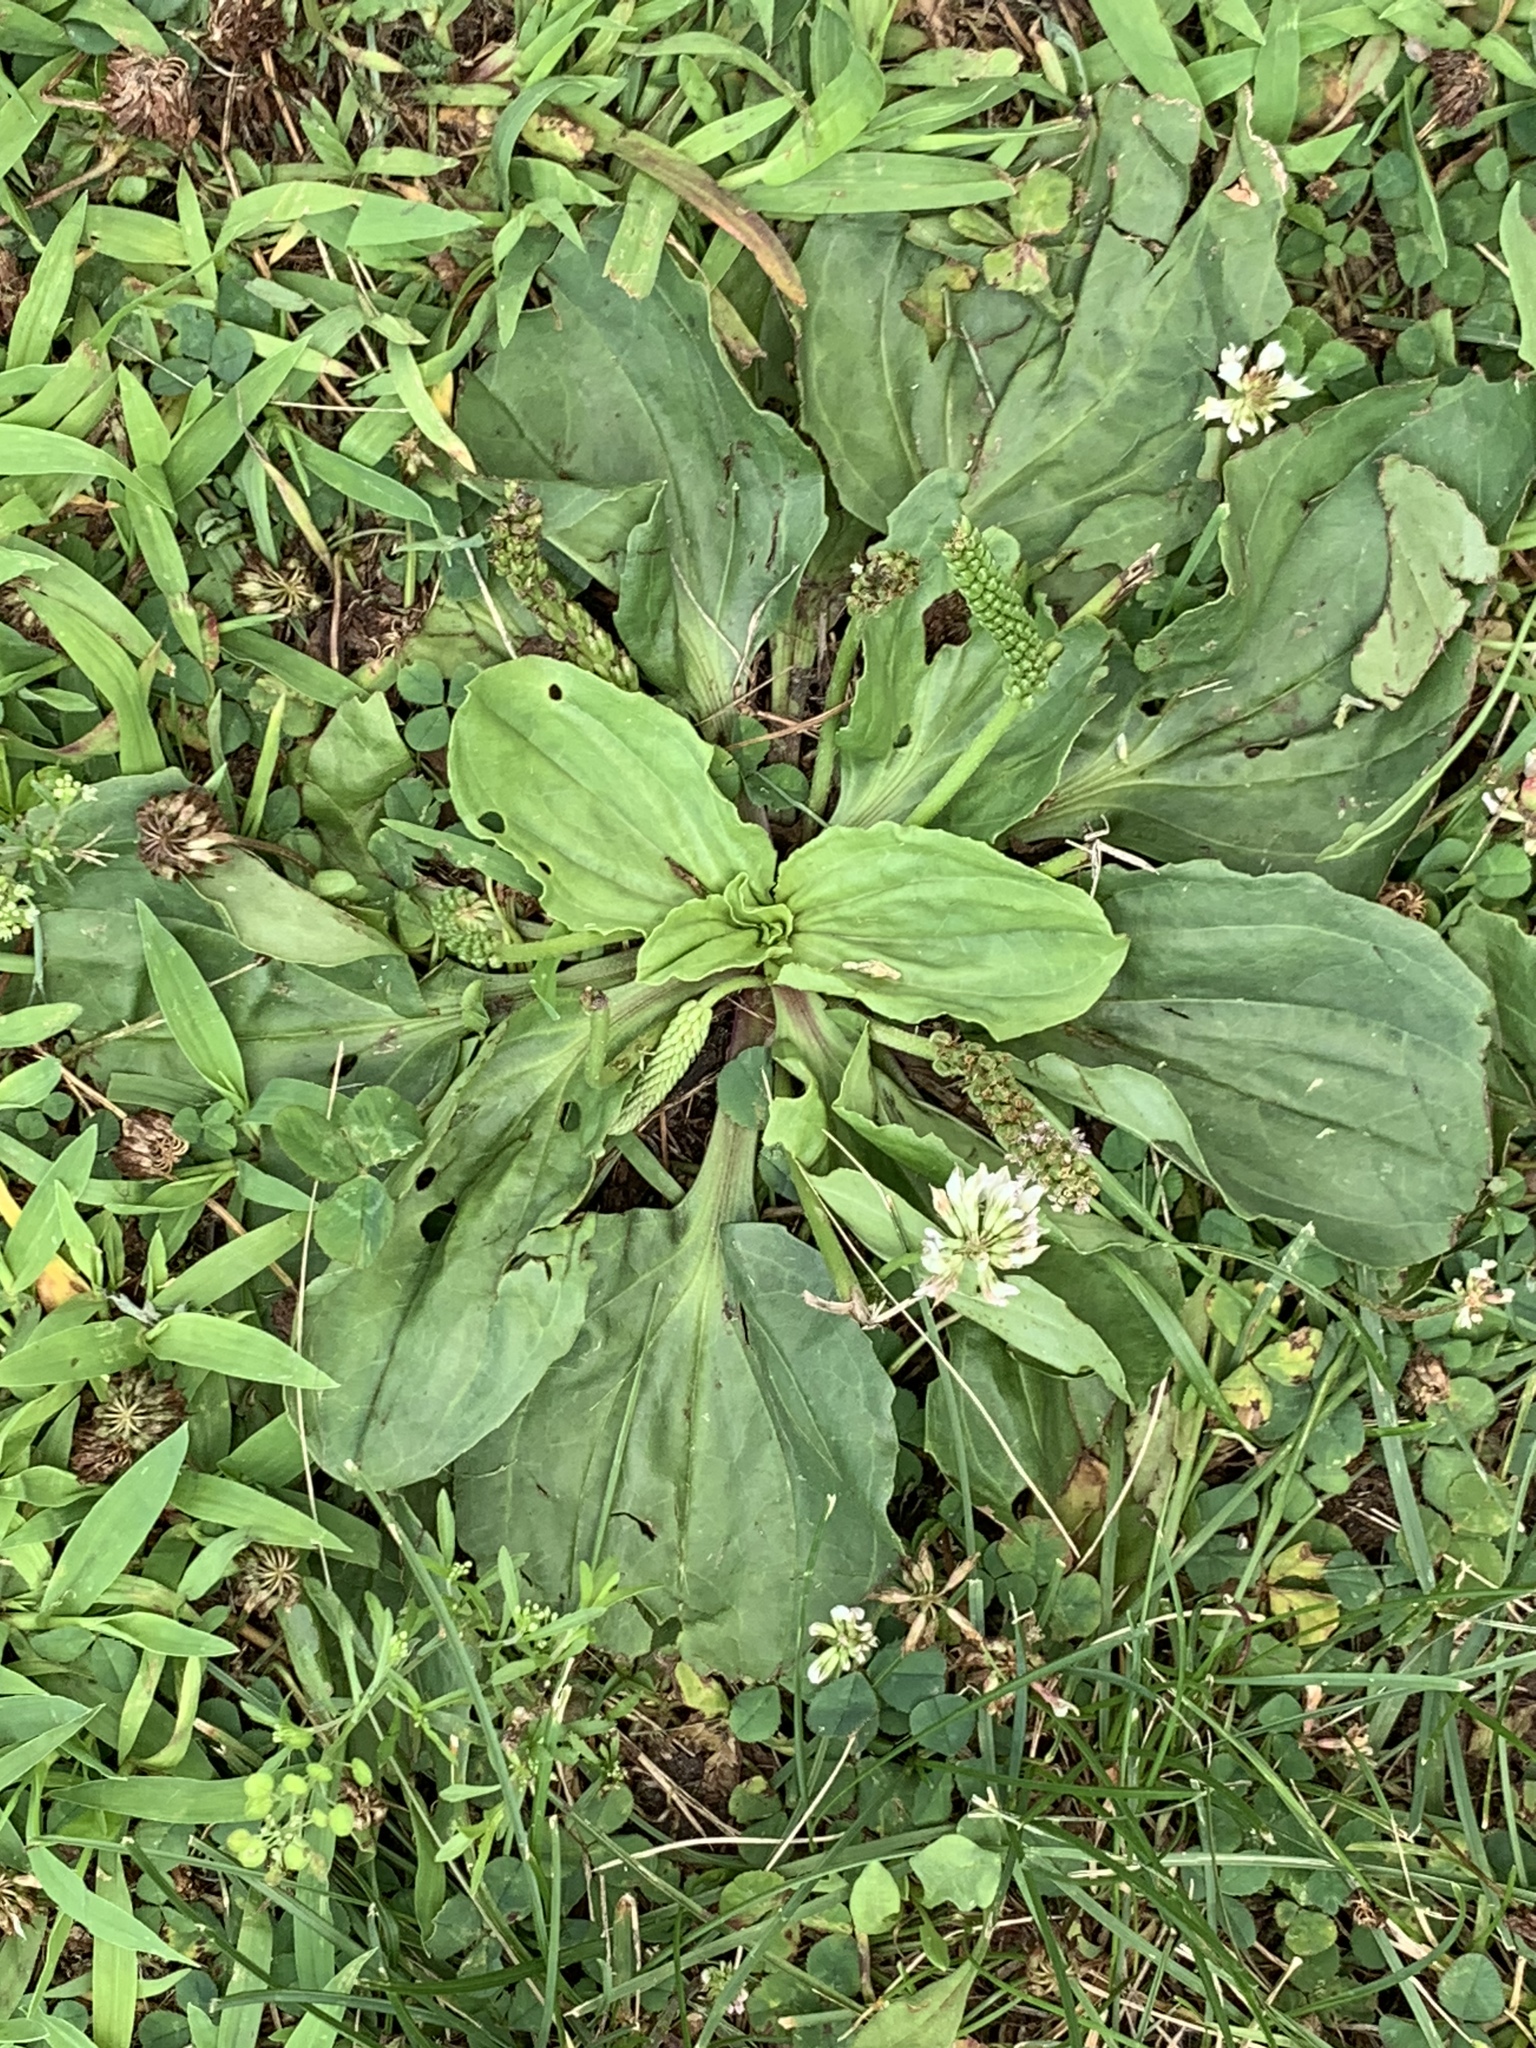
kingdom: Plantae
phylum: Tracheophyta
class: Magnoliopsida
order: Lamiales
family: Plantaginaceae
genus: Plantago
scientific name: Plantago rugelii
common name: American plantain
